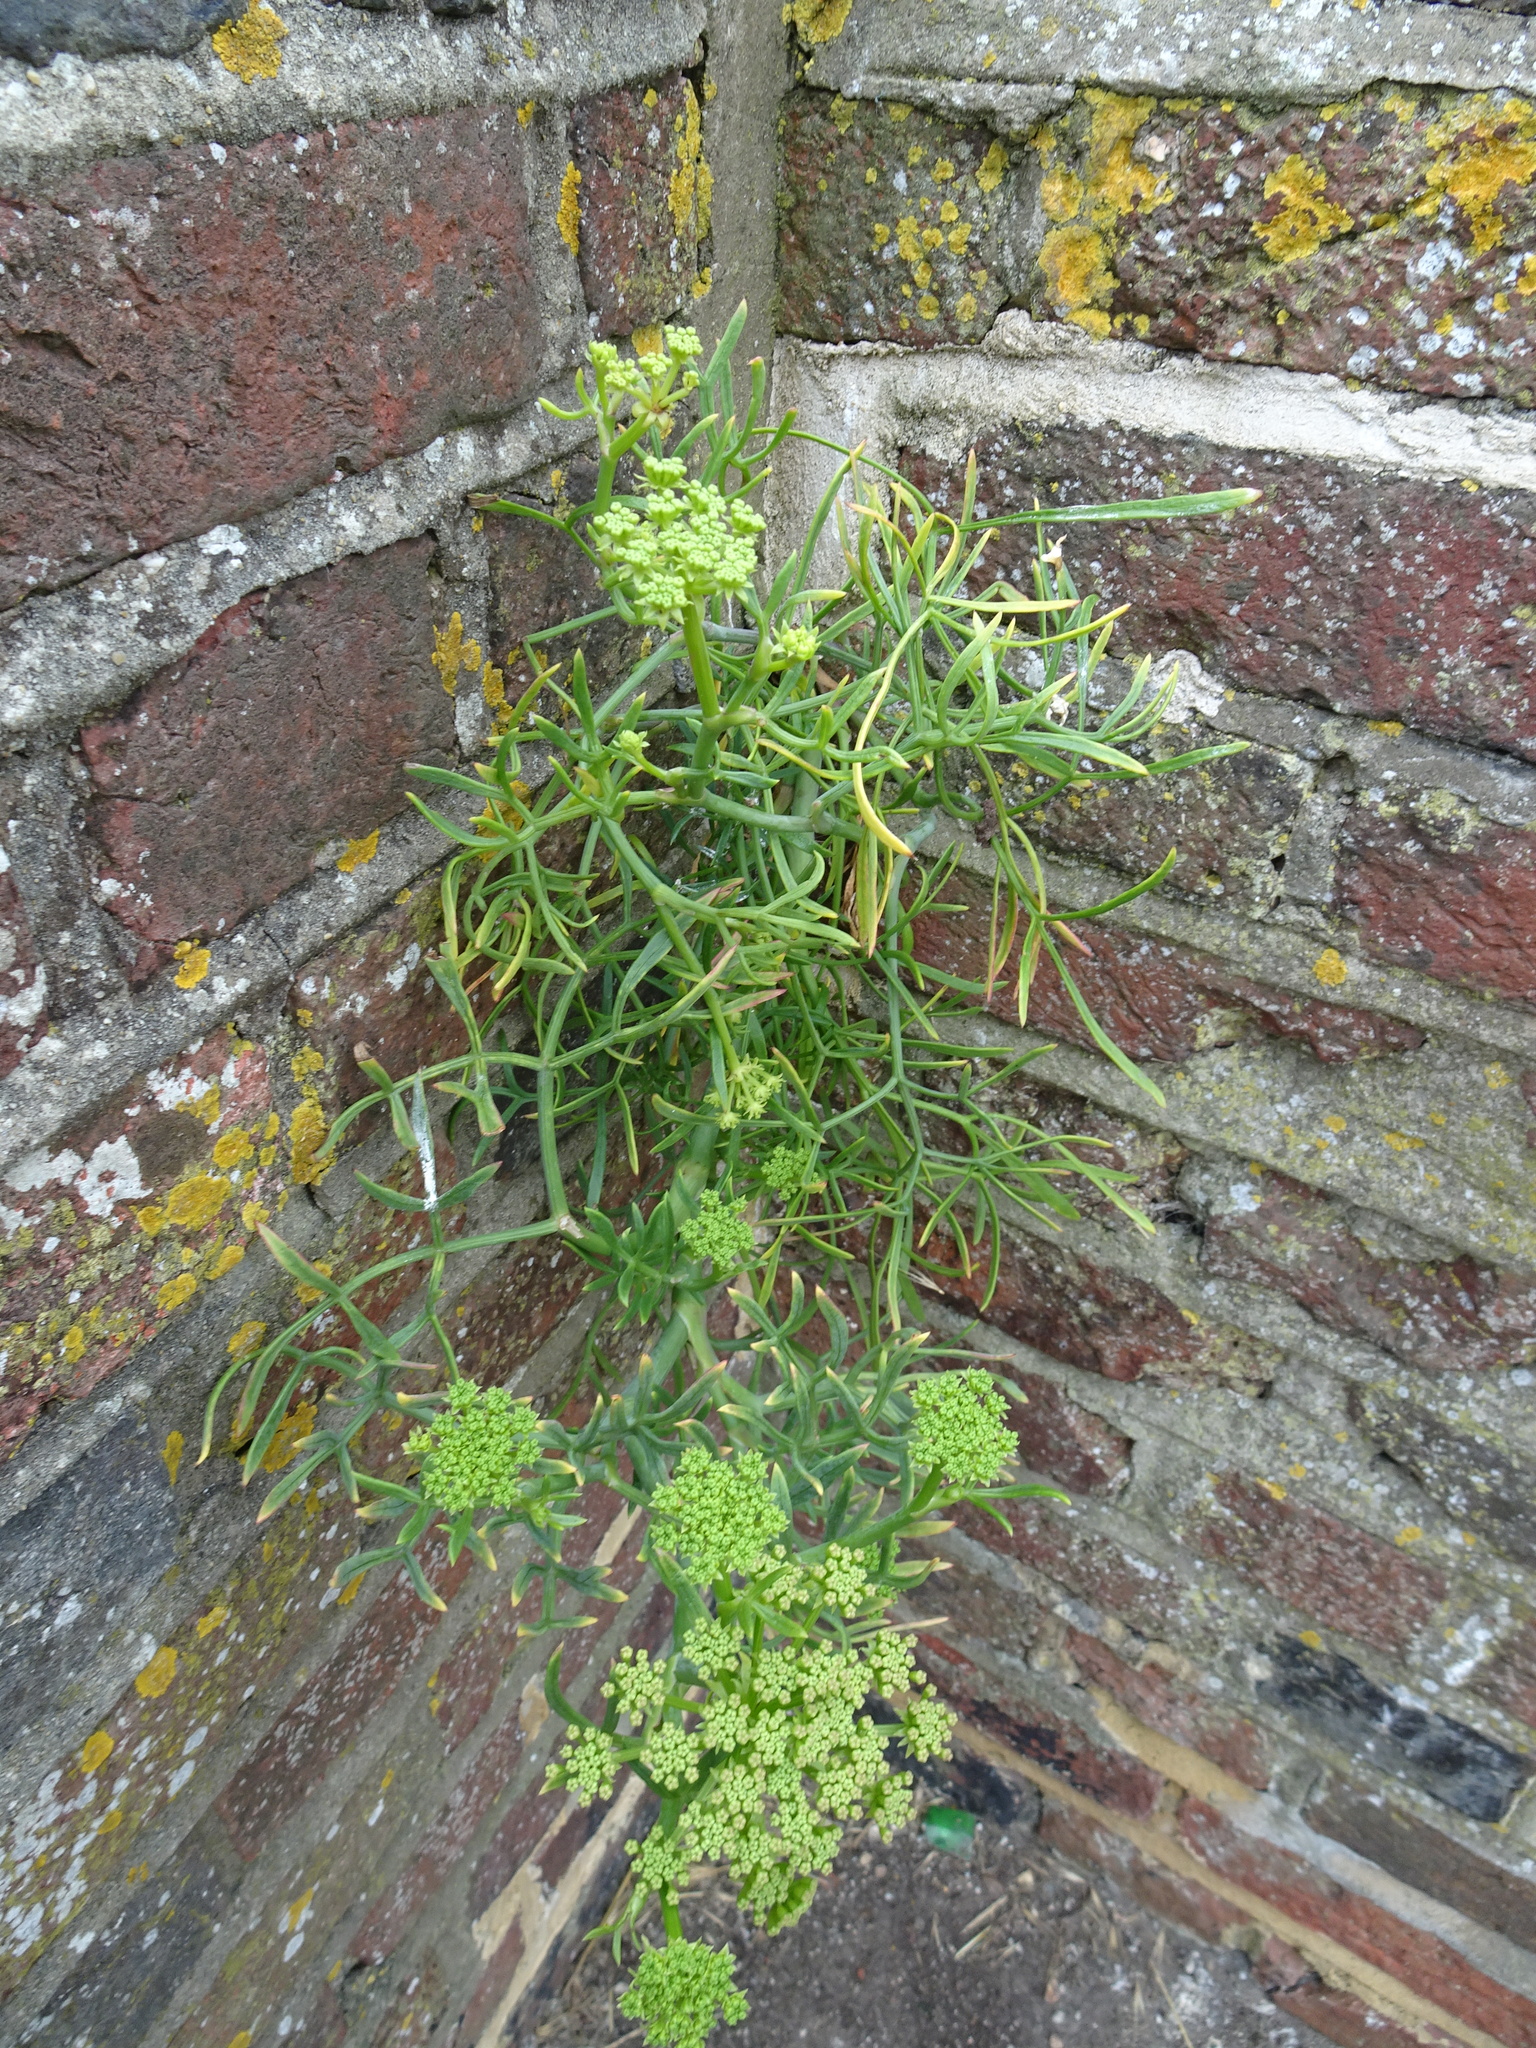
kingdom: Plantae
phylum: Tracheophyta
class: Magnoliopsida
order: Apiales
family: Apiaceae
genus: Crithmum
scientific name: Crithmum maritimum
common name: Rock samphire
